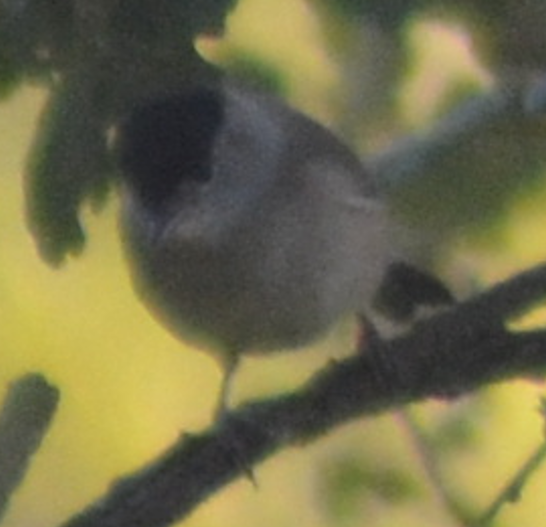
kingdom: Animalia
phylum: Chordata
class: Aves
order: Passeriformes
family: Sylviidae
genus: Sylvia
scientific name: Sylvia atricapilla
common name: Eurasian blackcap
